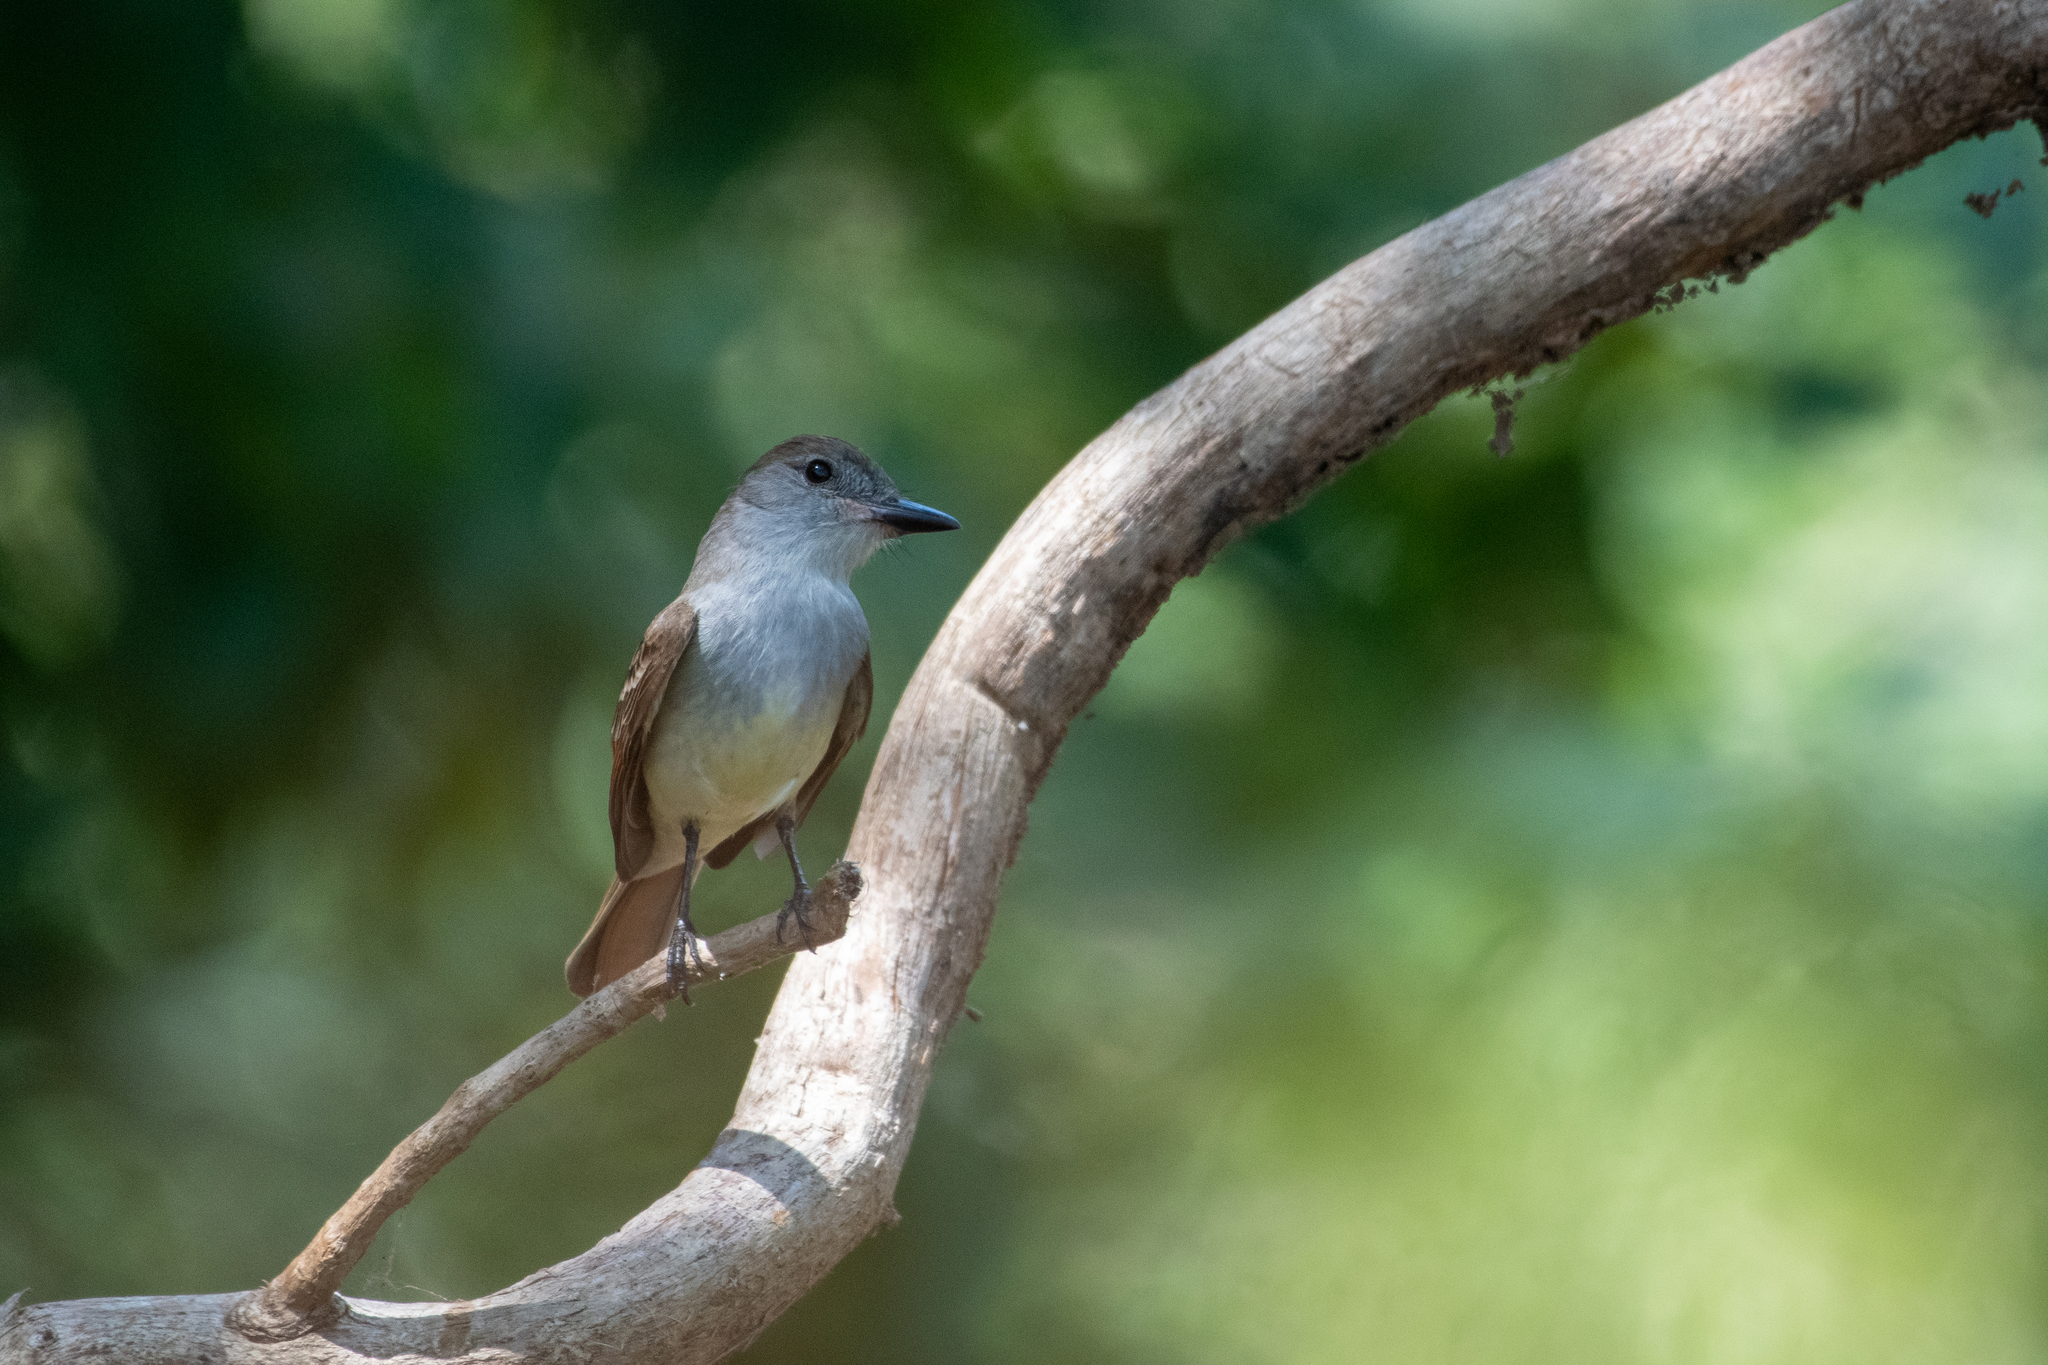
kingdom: Animalia
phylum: Chordata
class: Aves
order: Passeriformes
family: Tyrannidae
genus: Myiarchus
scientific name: Myiarchus tyrannulus
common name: Brown-crested flycatcher
